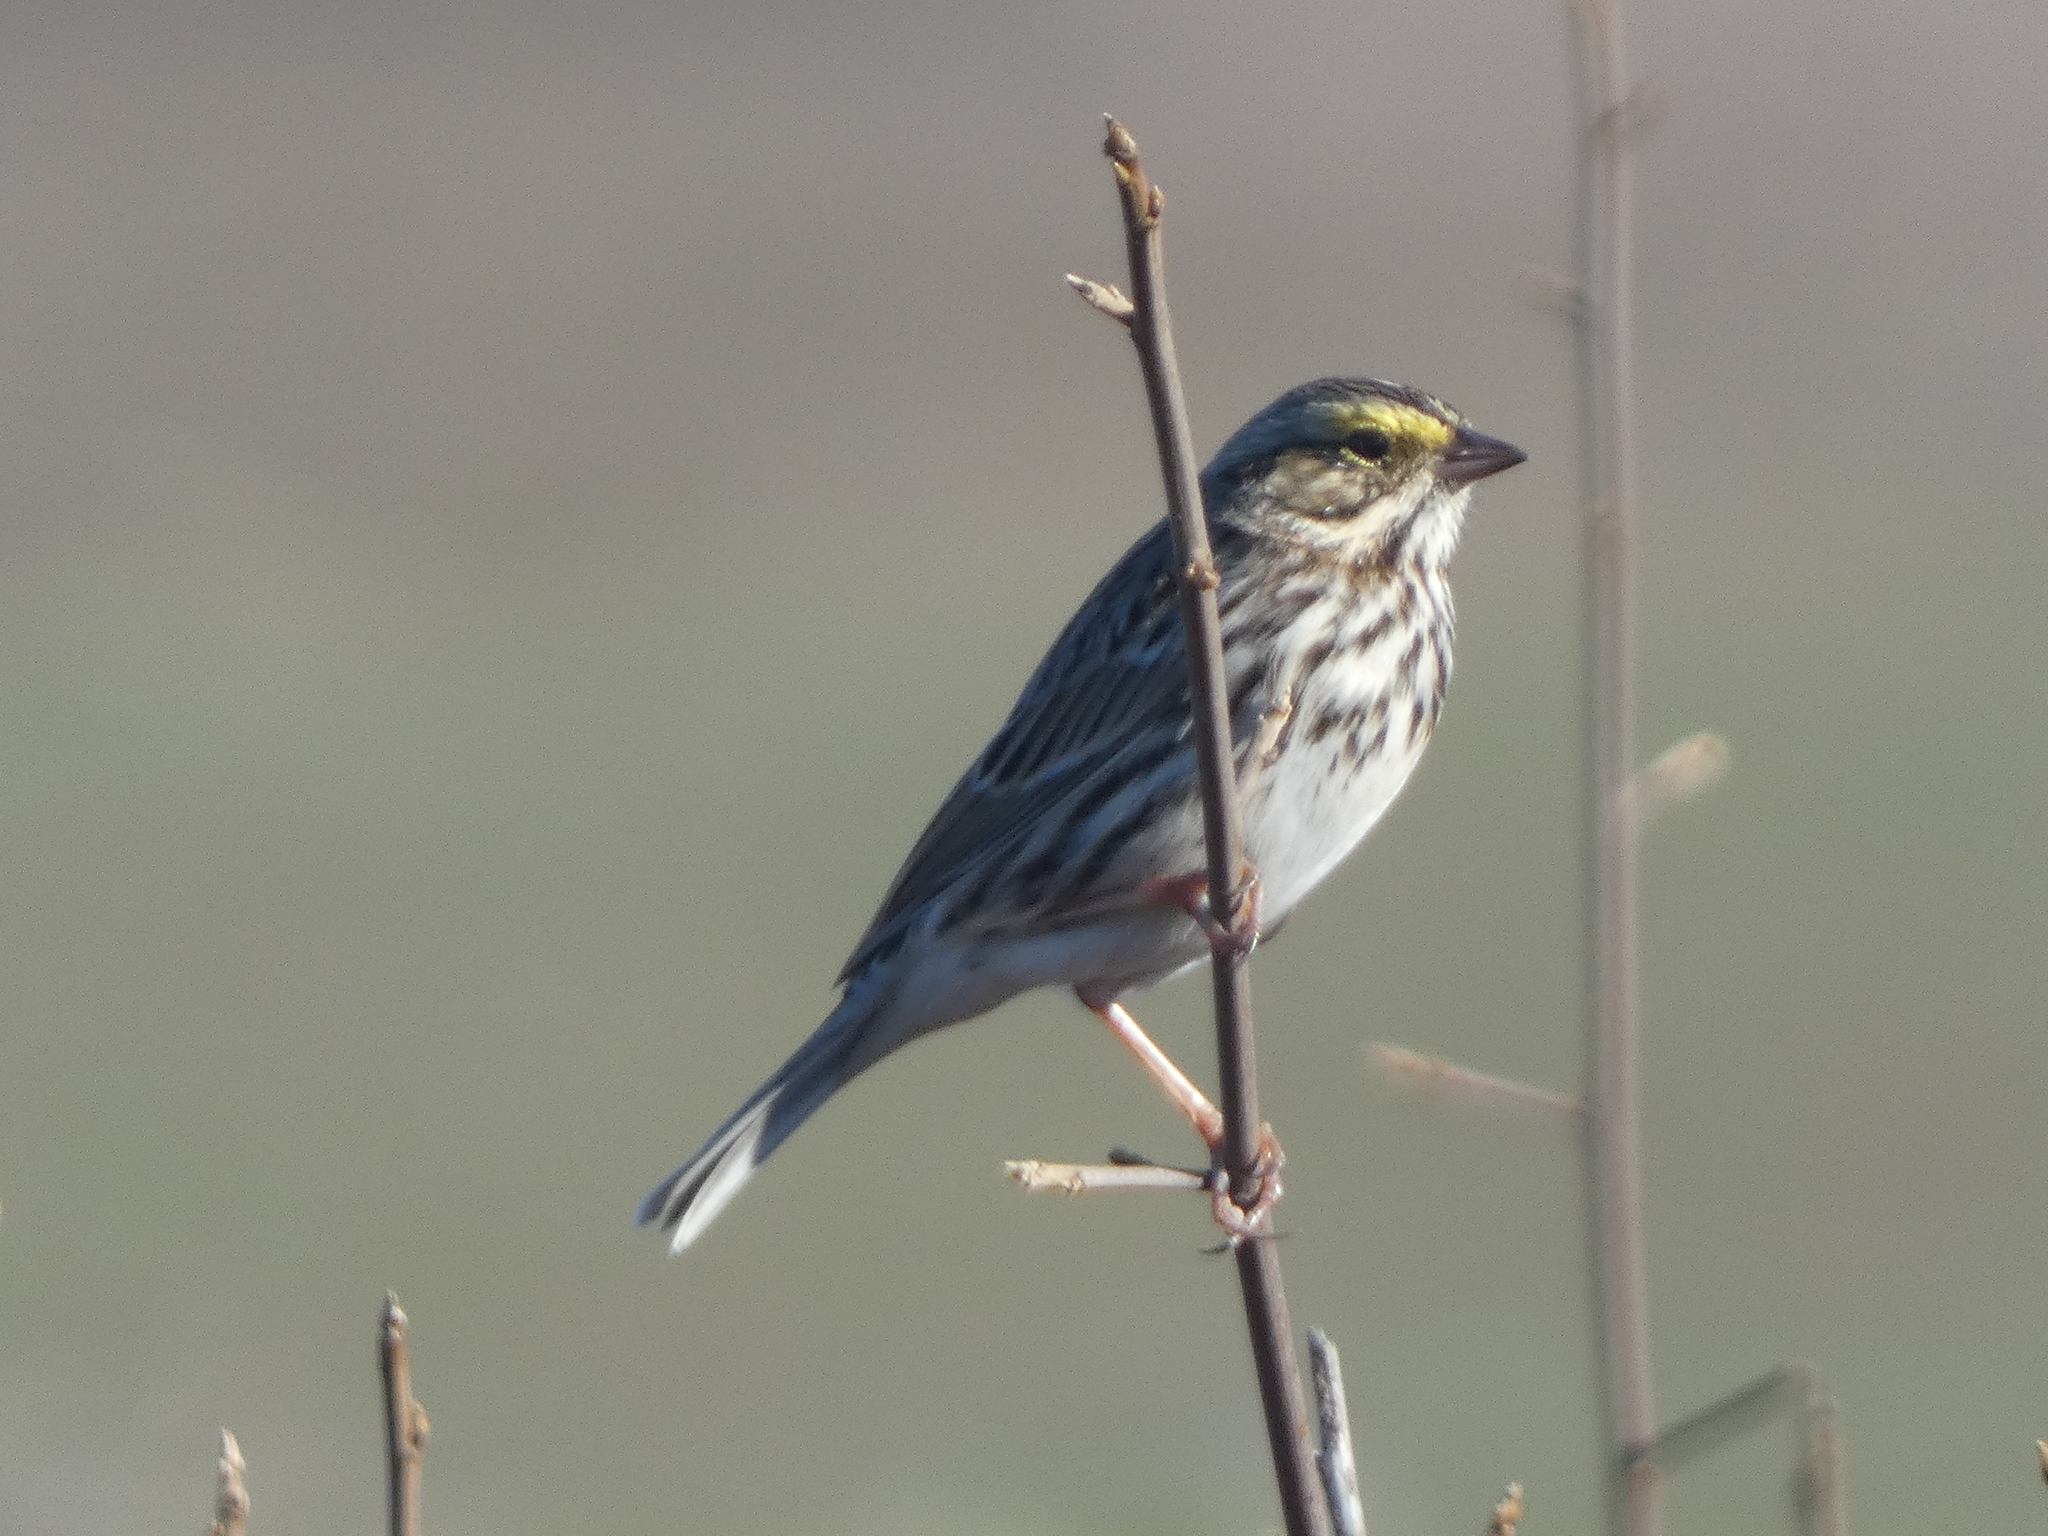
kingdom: Animalia
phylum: Chordata
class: Aves
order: Passeriformes
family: Passerellidae
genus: Passerculus
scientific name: Passerculus sandwichensis
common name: Savannah sparrow
